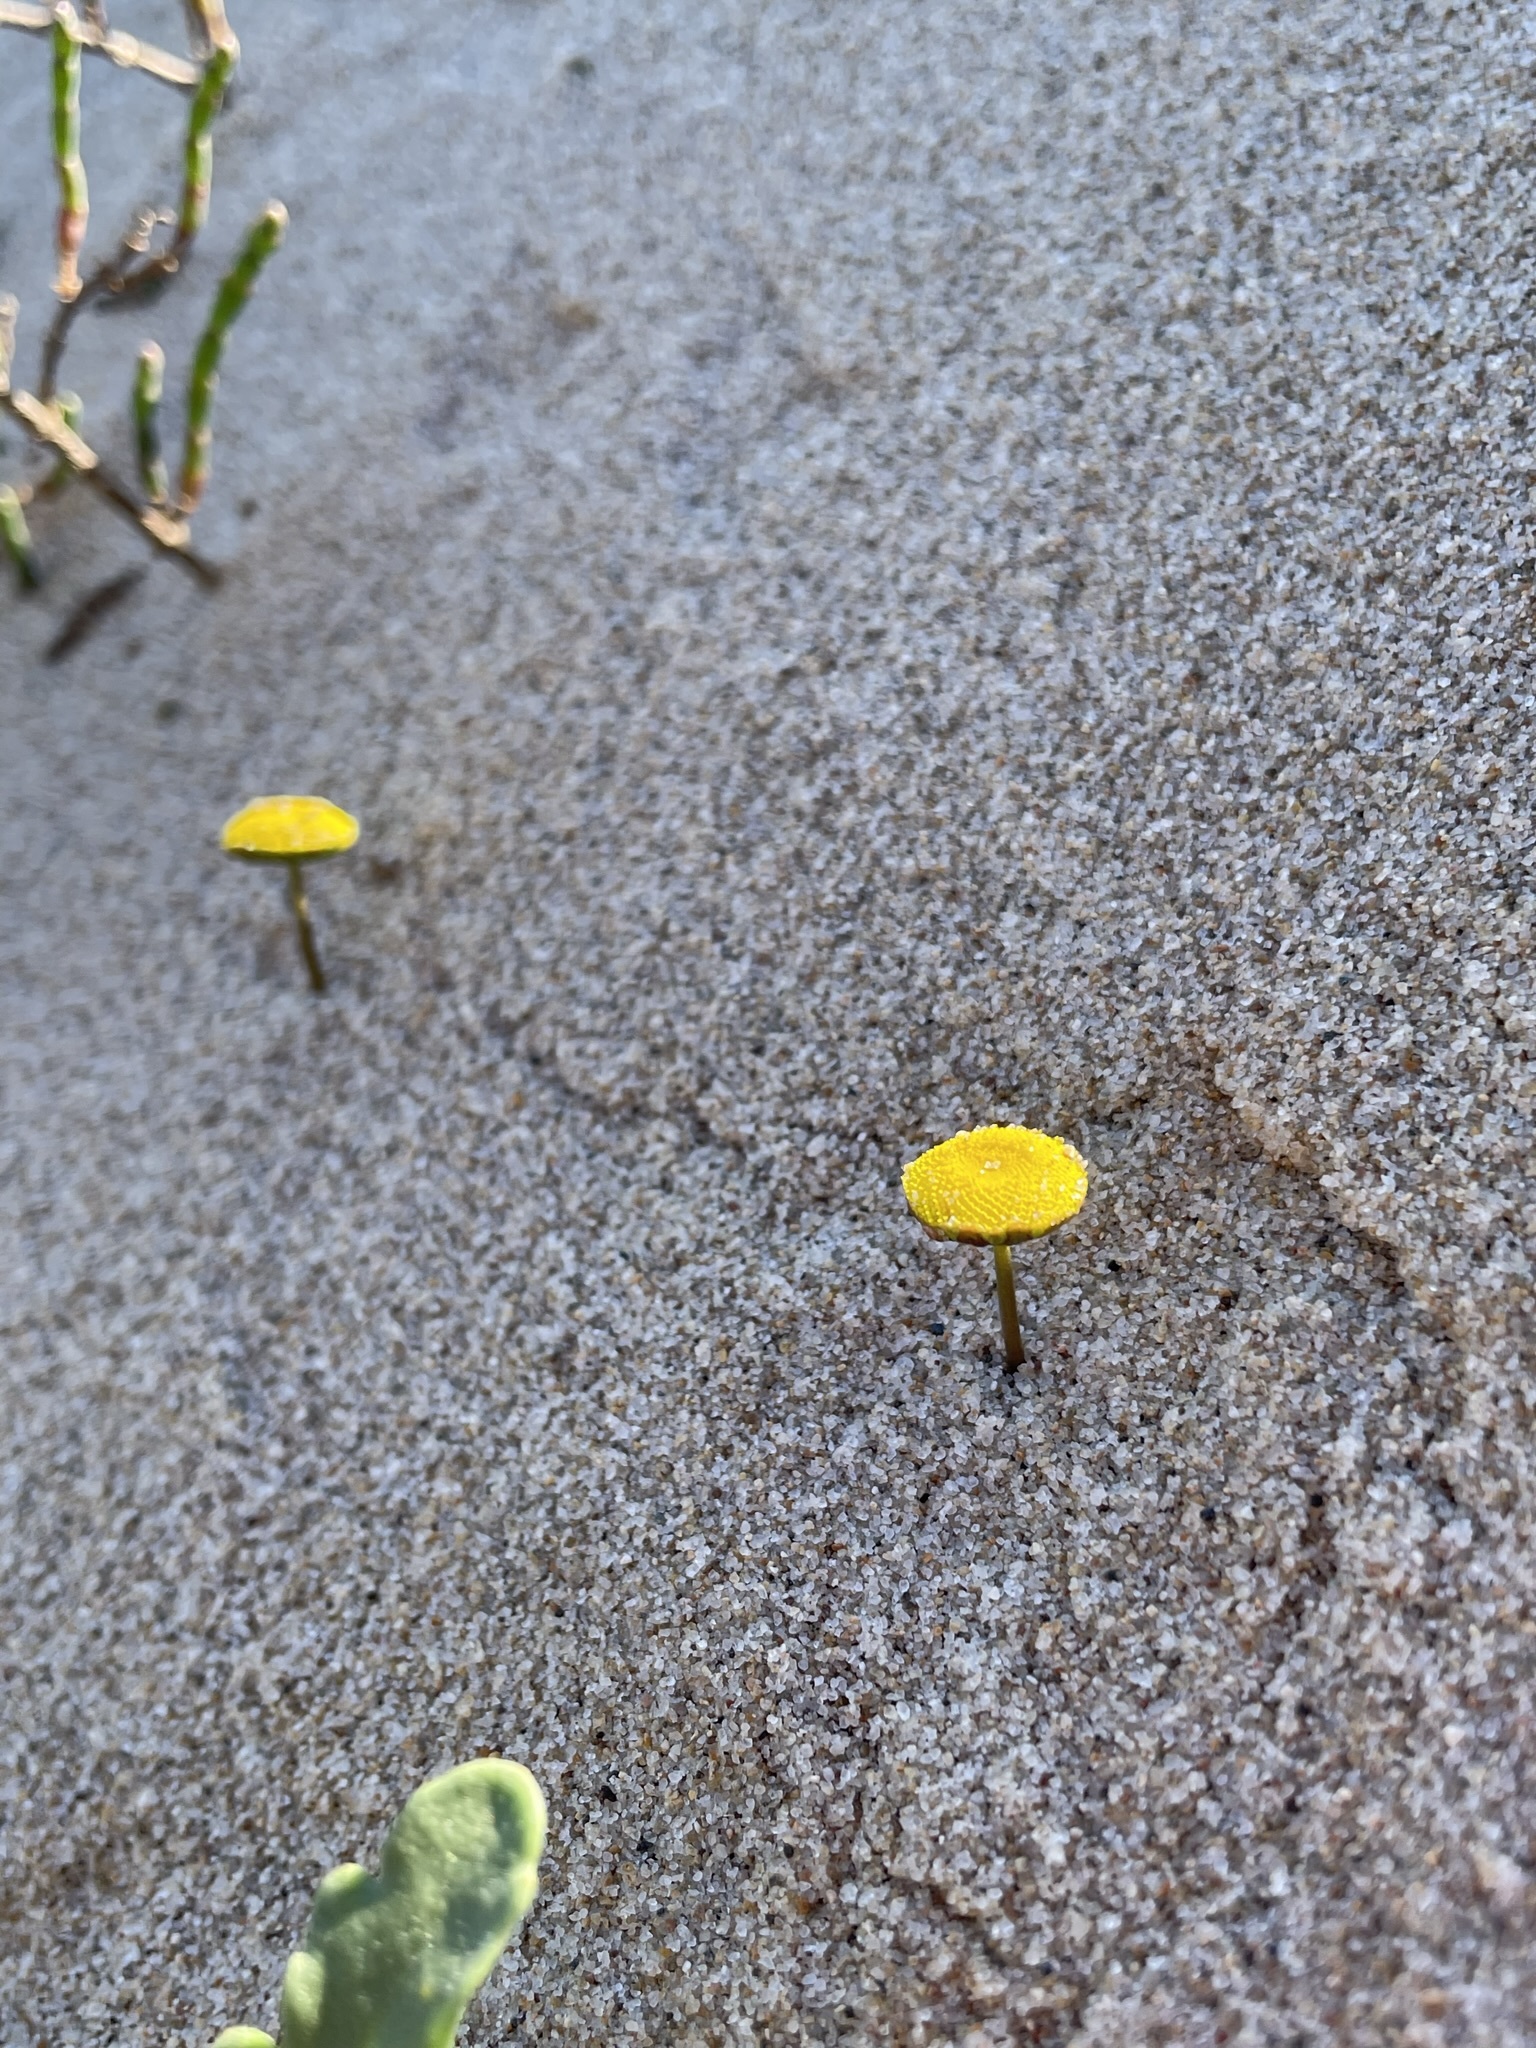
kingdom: Plantae
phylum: Tracheophyta
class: Magnoliopsida
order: Asterales
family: Asteraceae
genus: Cotula
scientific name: Cotula coronopifolia
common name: Buttonweed
